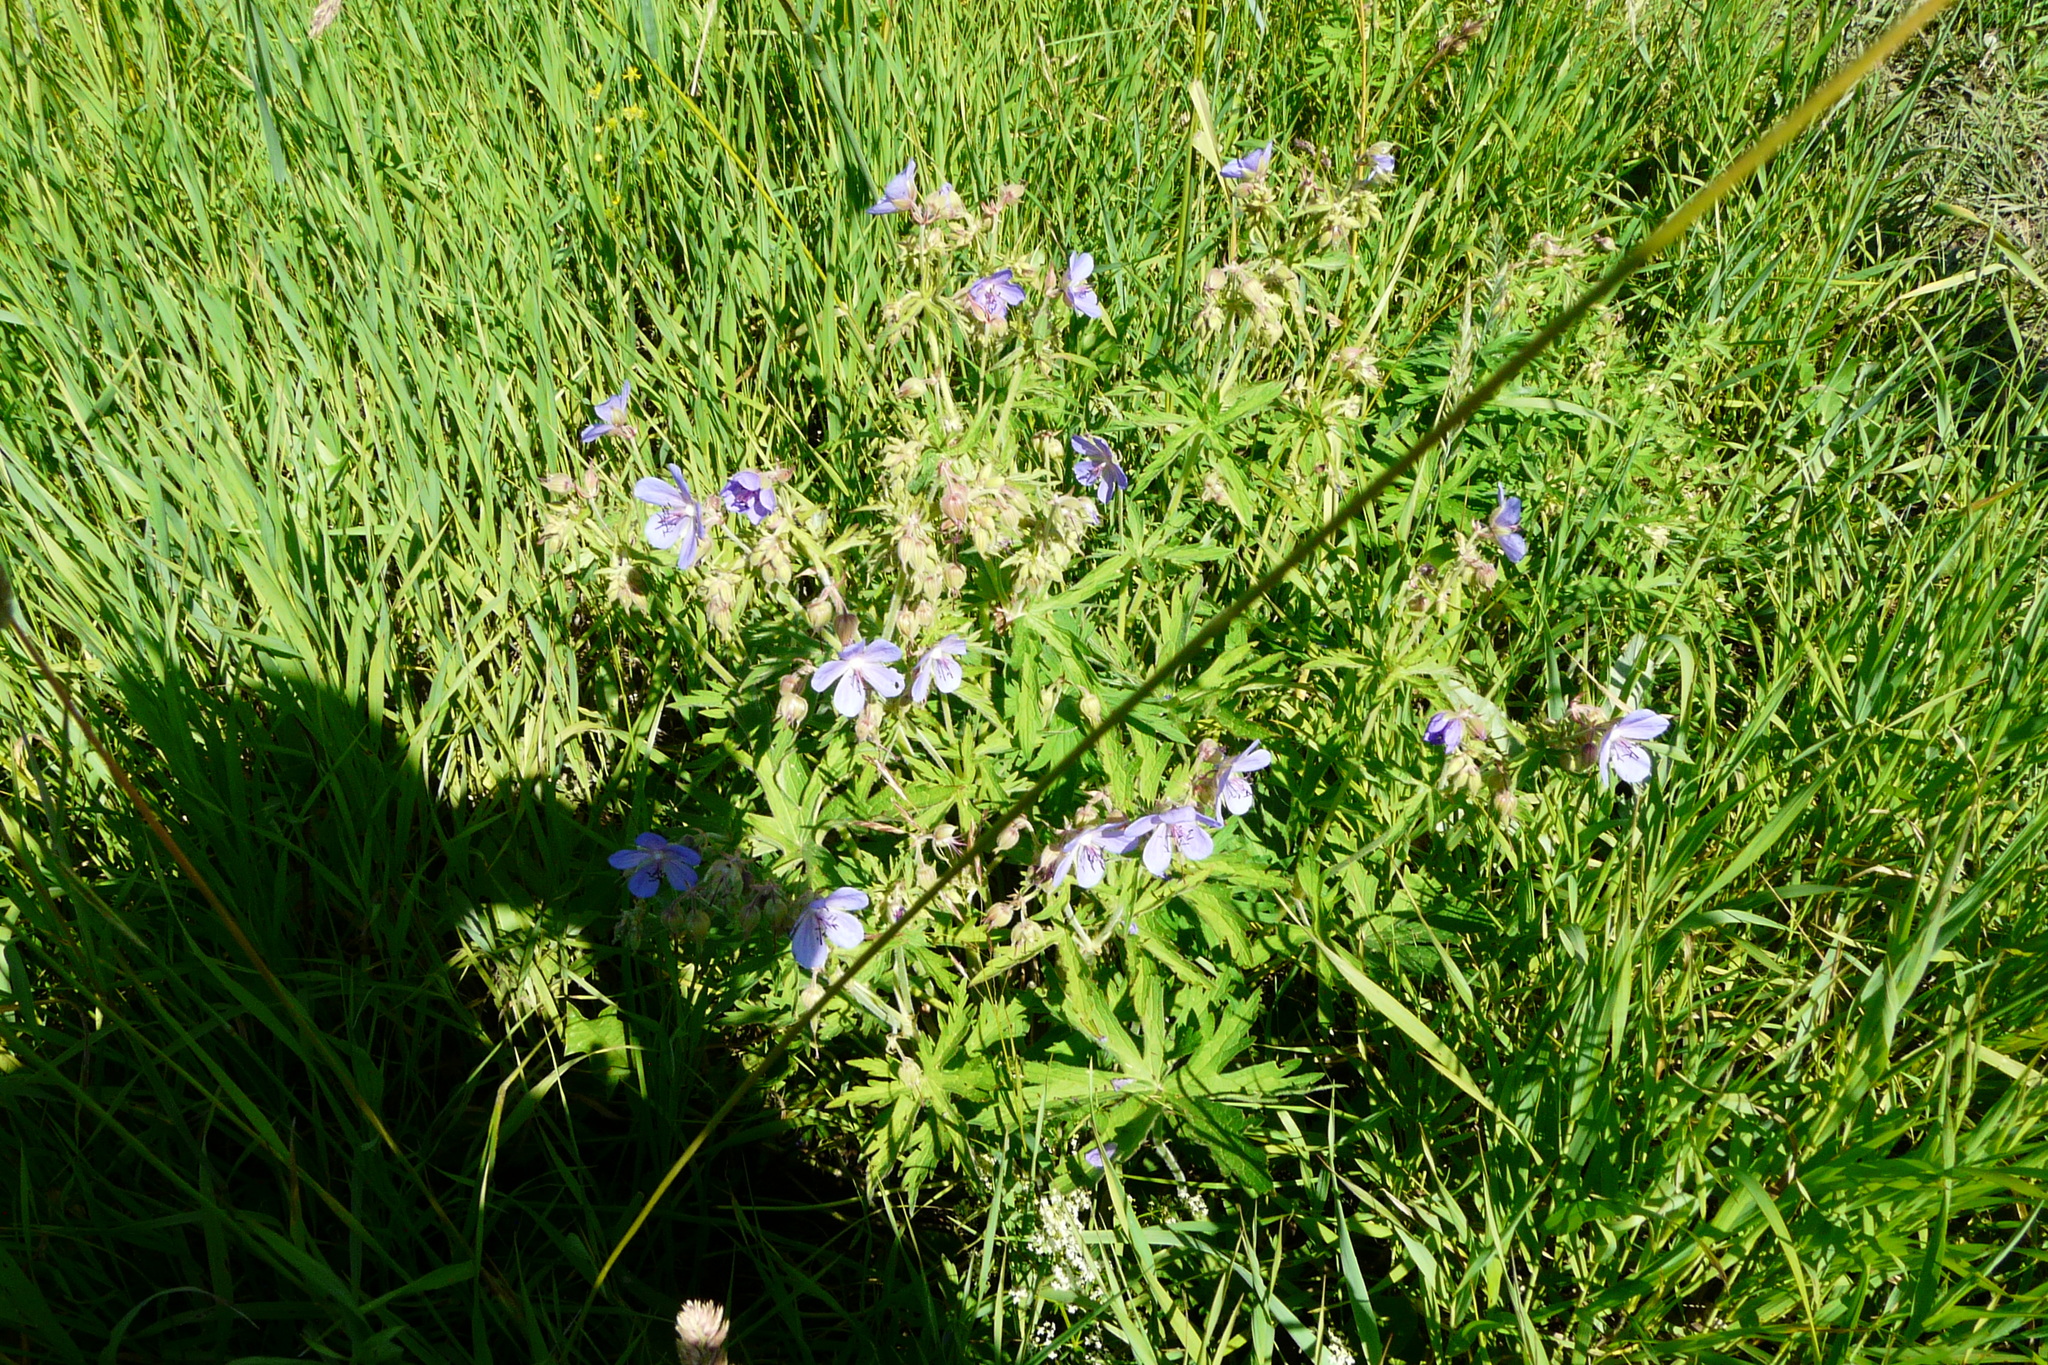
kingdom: Plantae
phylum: Tracheophyta
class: Magnoliopsida
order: Geraniales
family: Geraniaceae
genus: Geranium
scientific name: Geranium pratense
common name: Meadow crane's-bill
